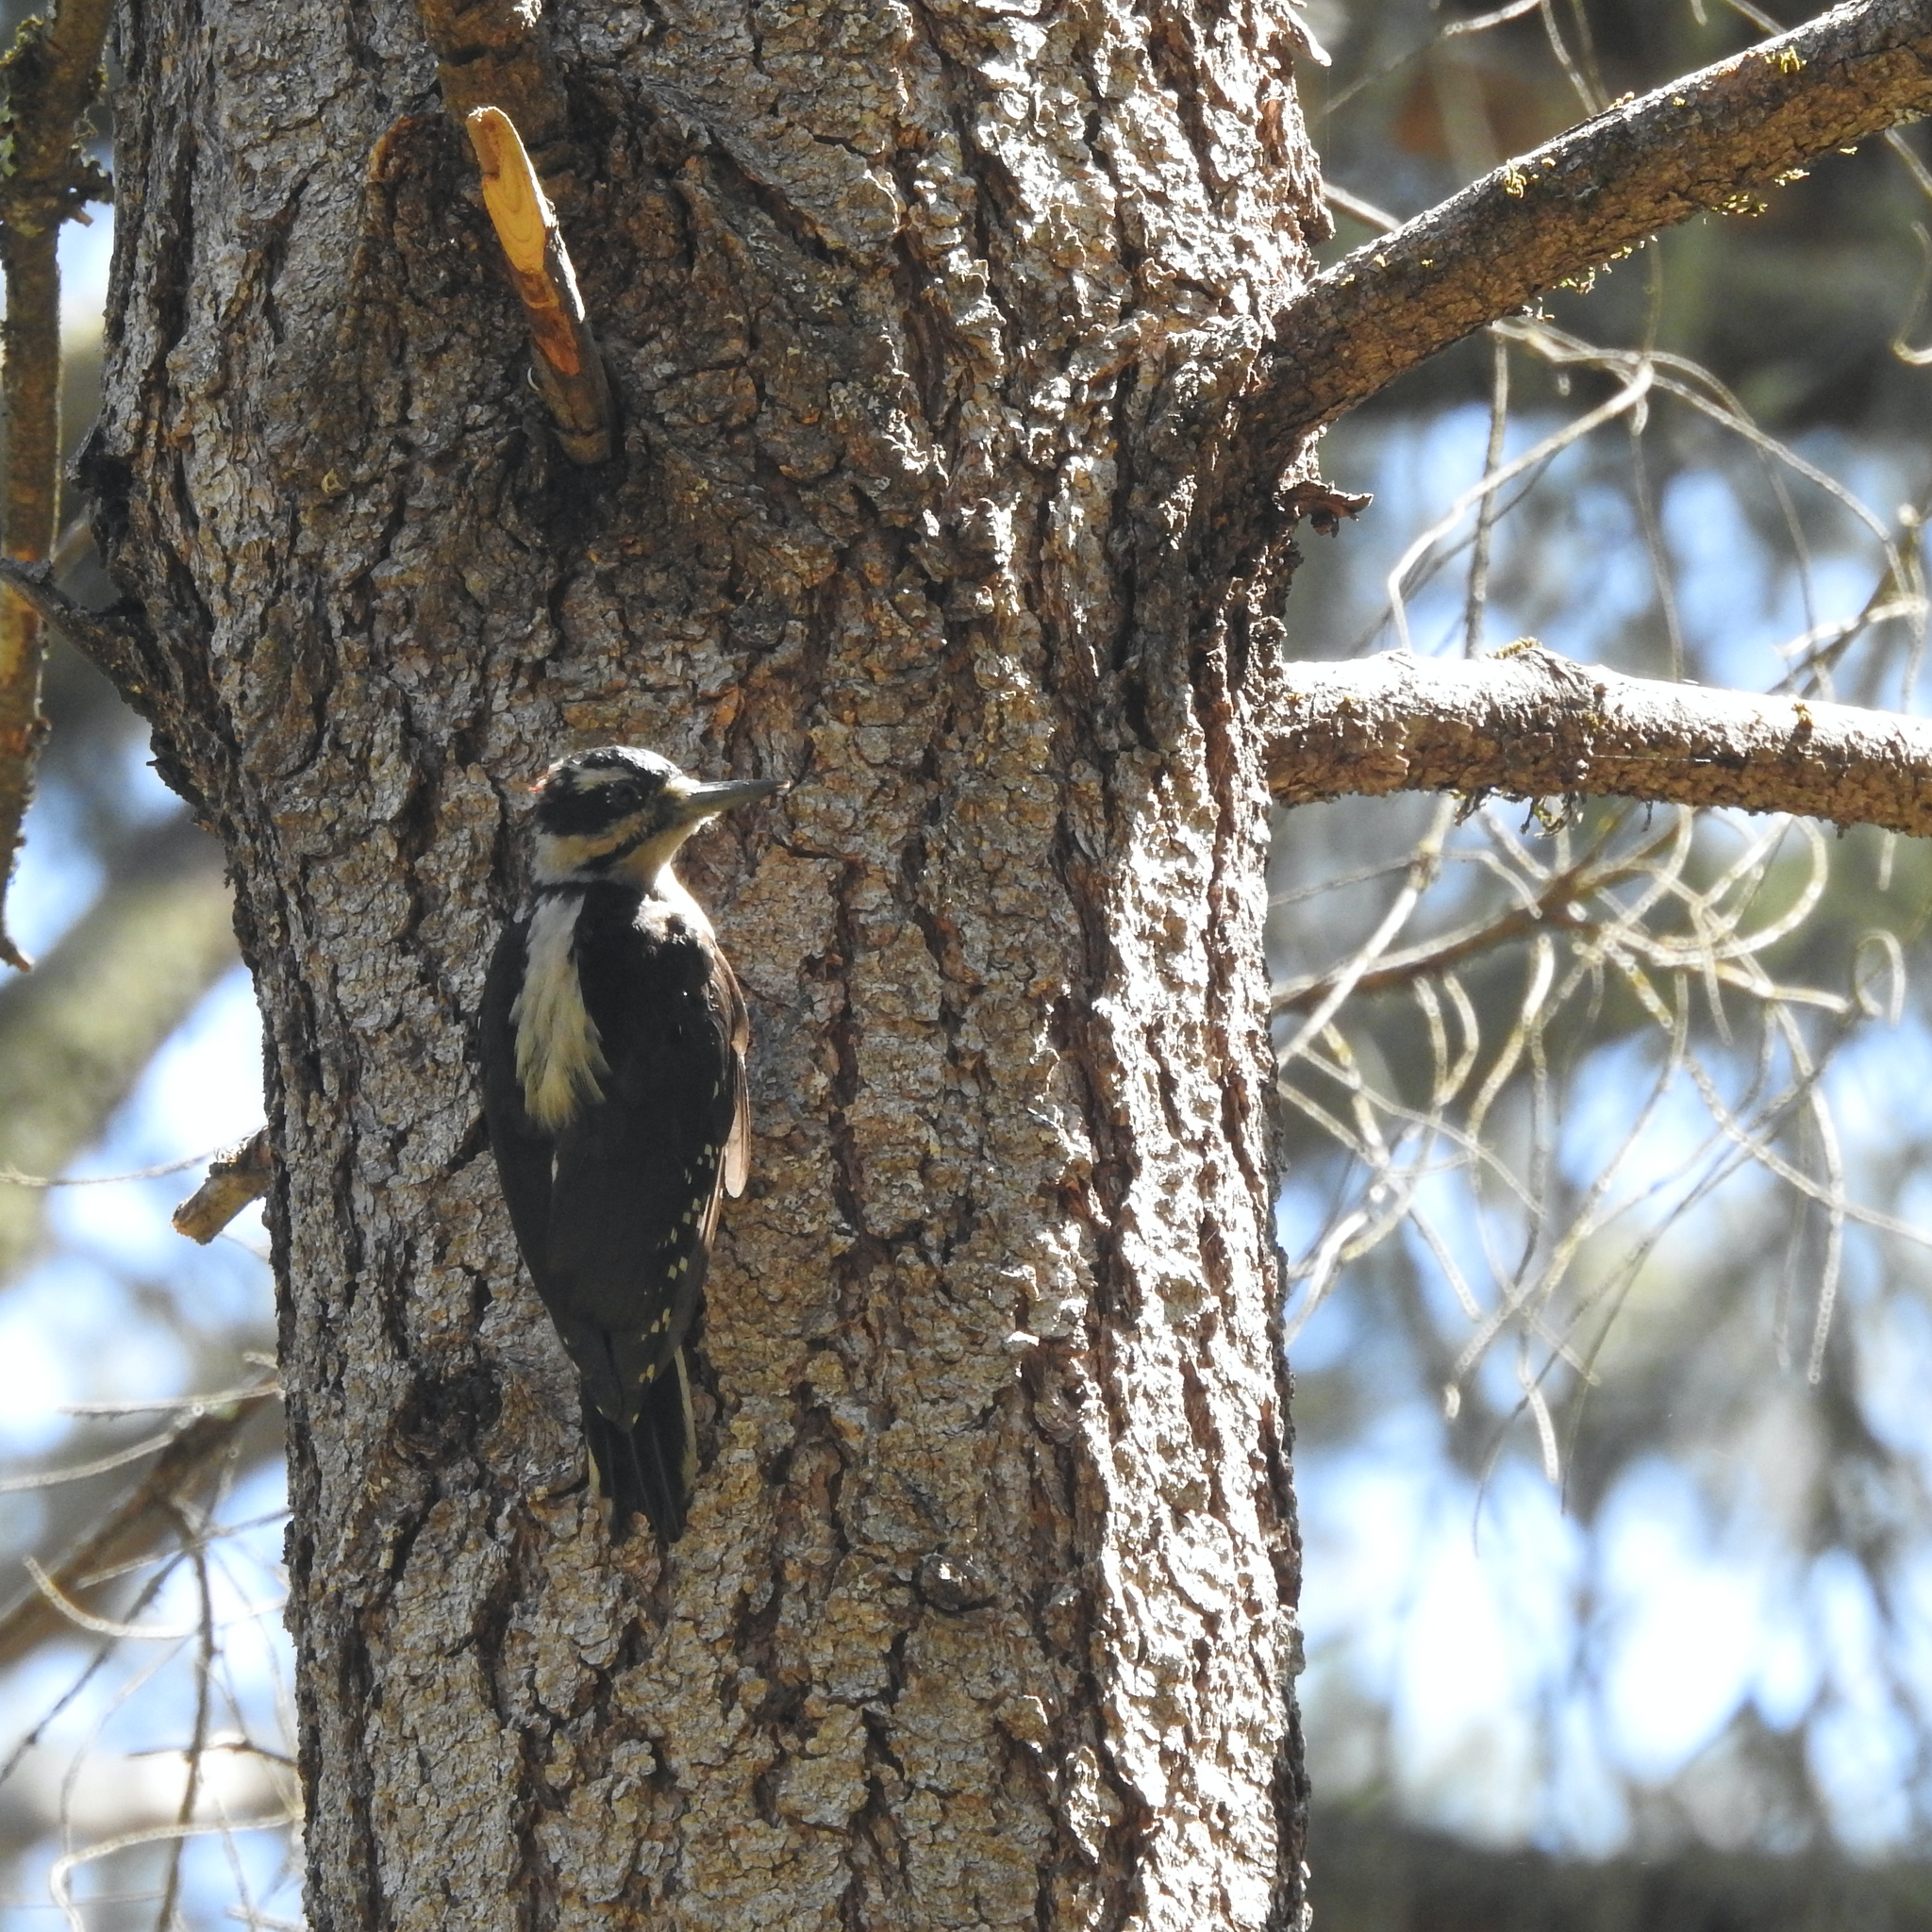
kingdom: Animalia
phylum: Chordata
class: Aves
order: Piciformes
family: Picidae
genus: Leuconotopicus
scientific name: Leuconotopicus villosus
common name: Hairy woodpecker
